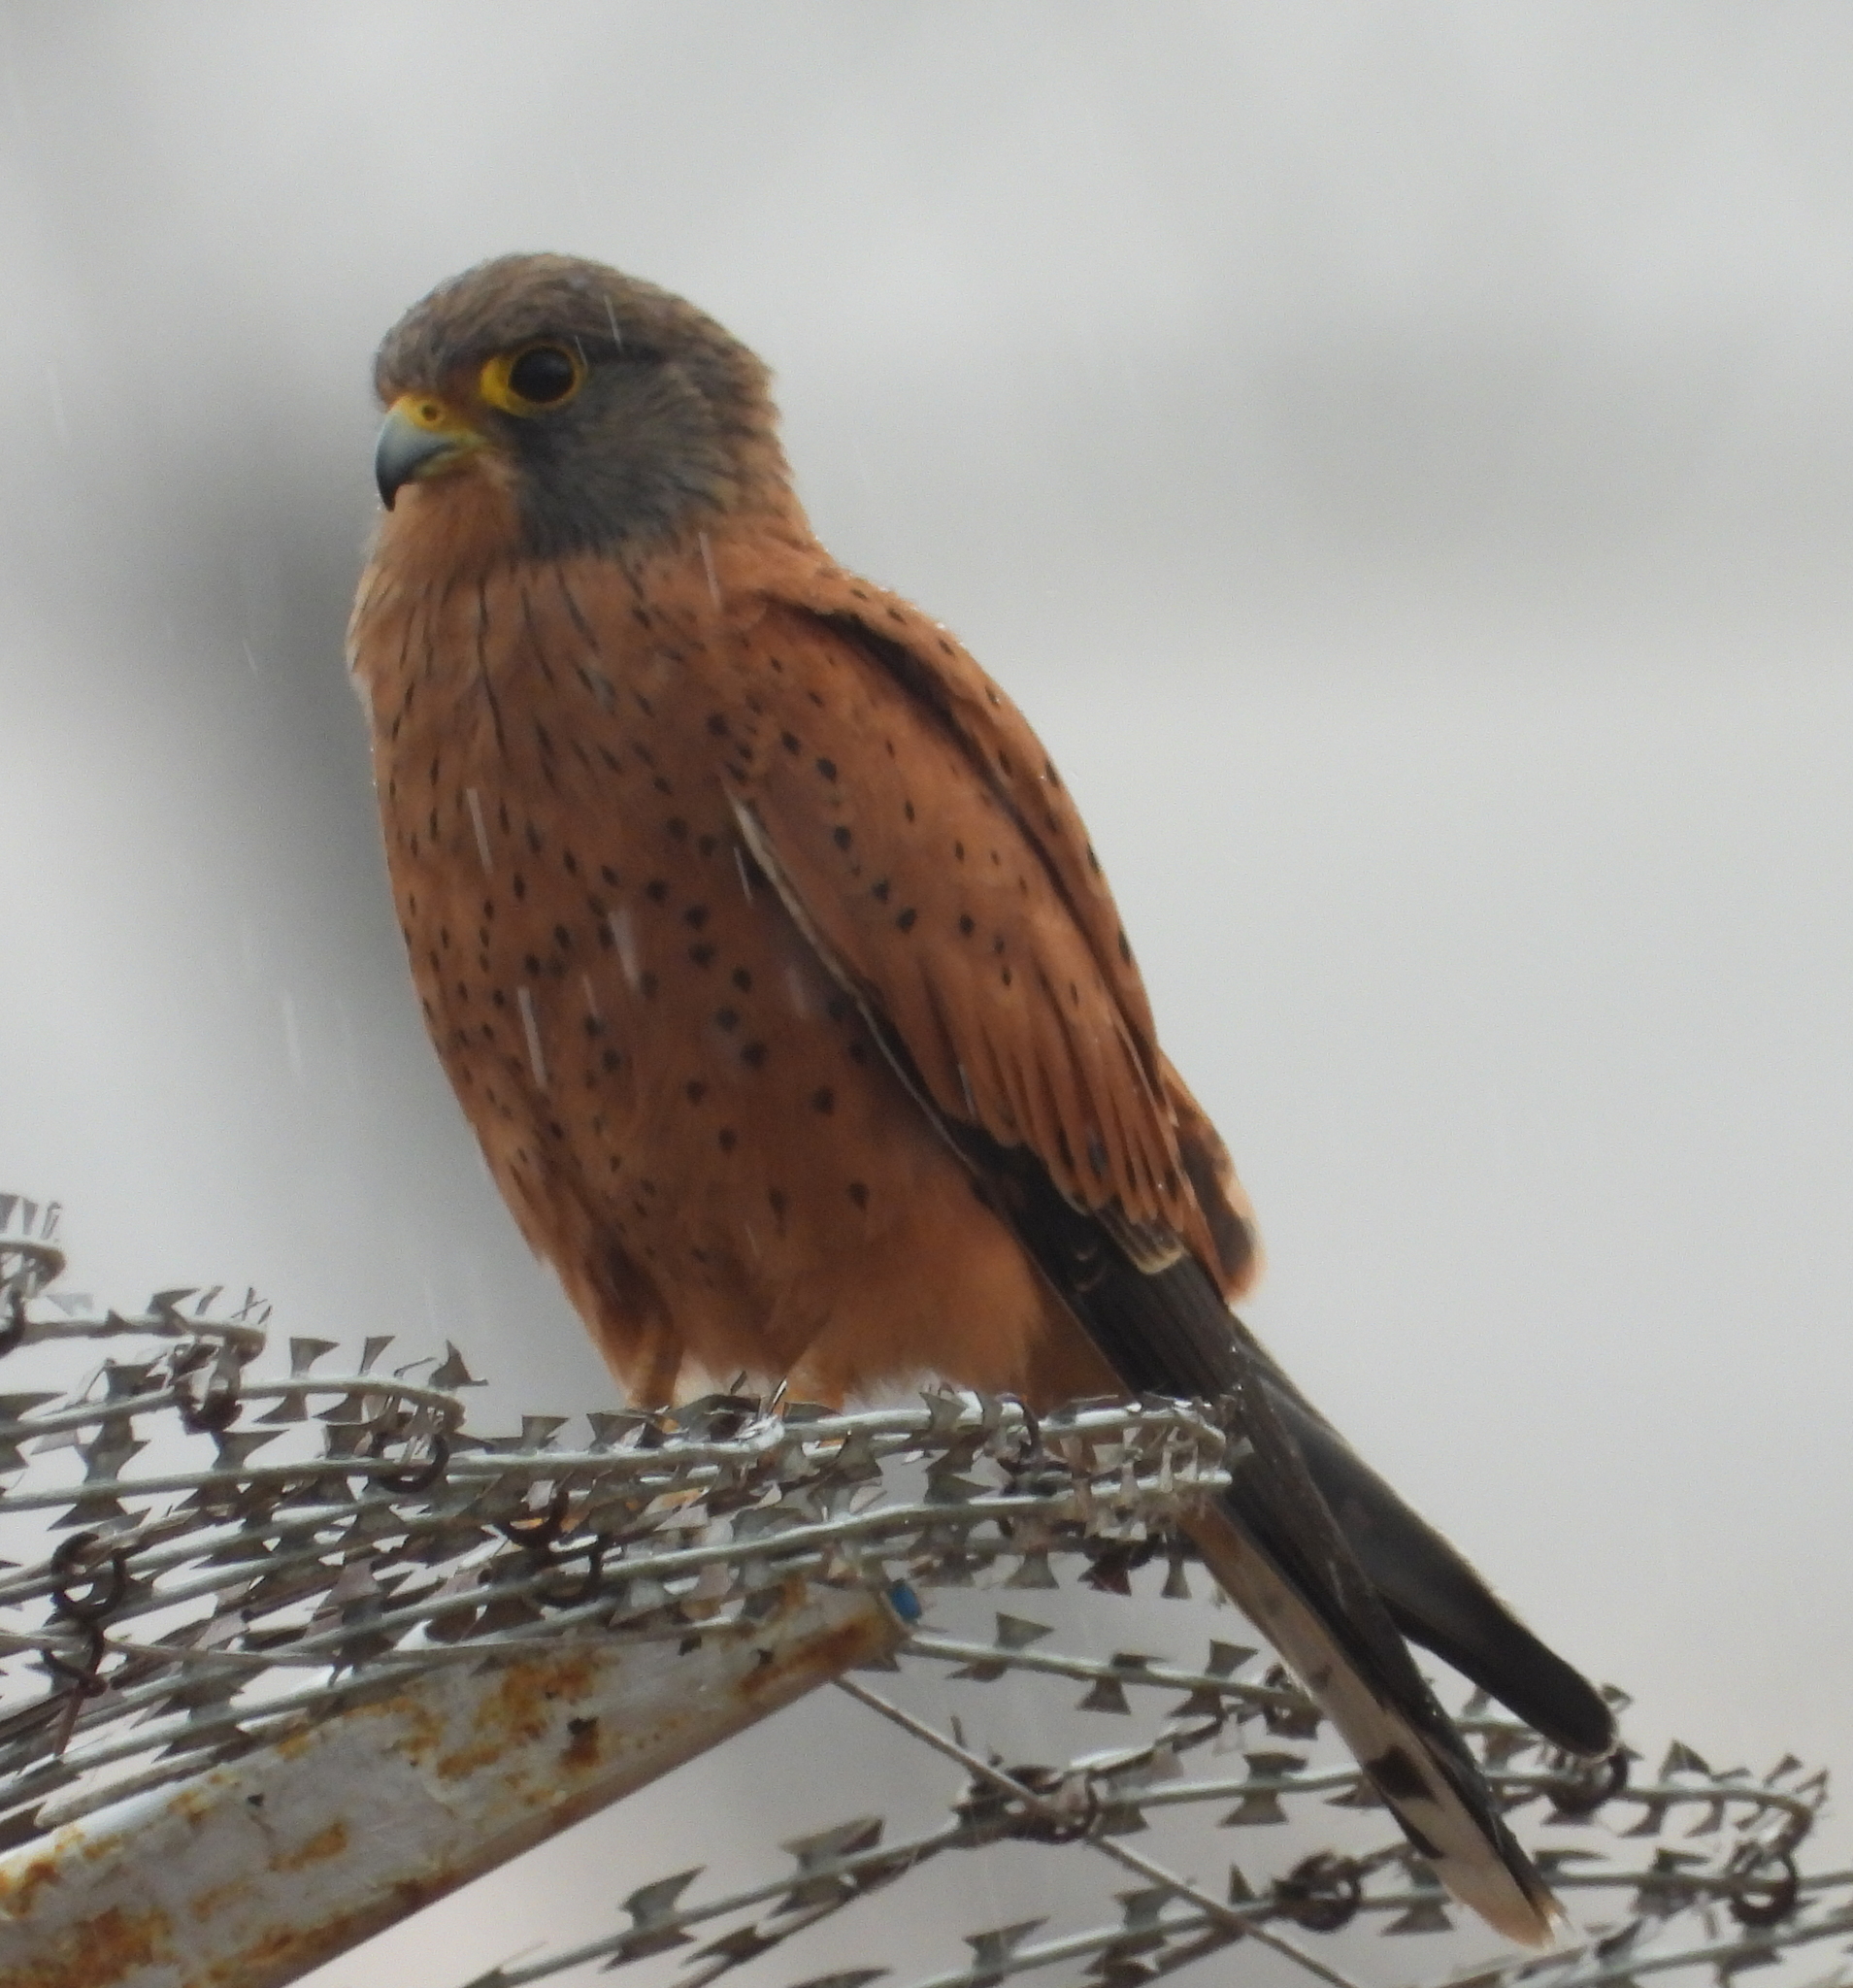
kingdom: Animalia
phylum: Chordata
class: Aves
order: Falconiformes
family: Falconidae
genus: Falco
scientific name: Falco rupicolus
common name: Rock kestrel
